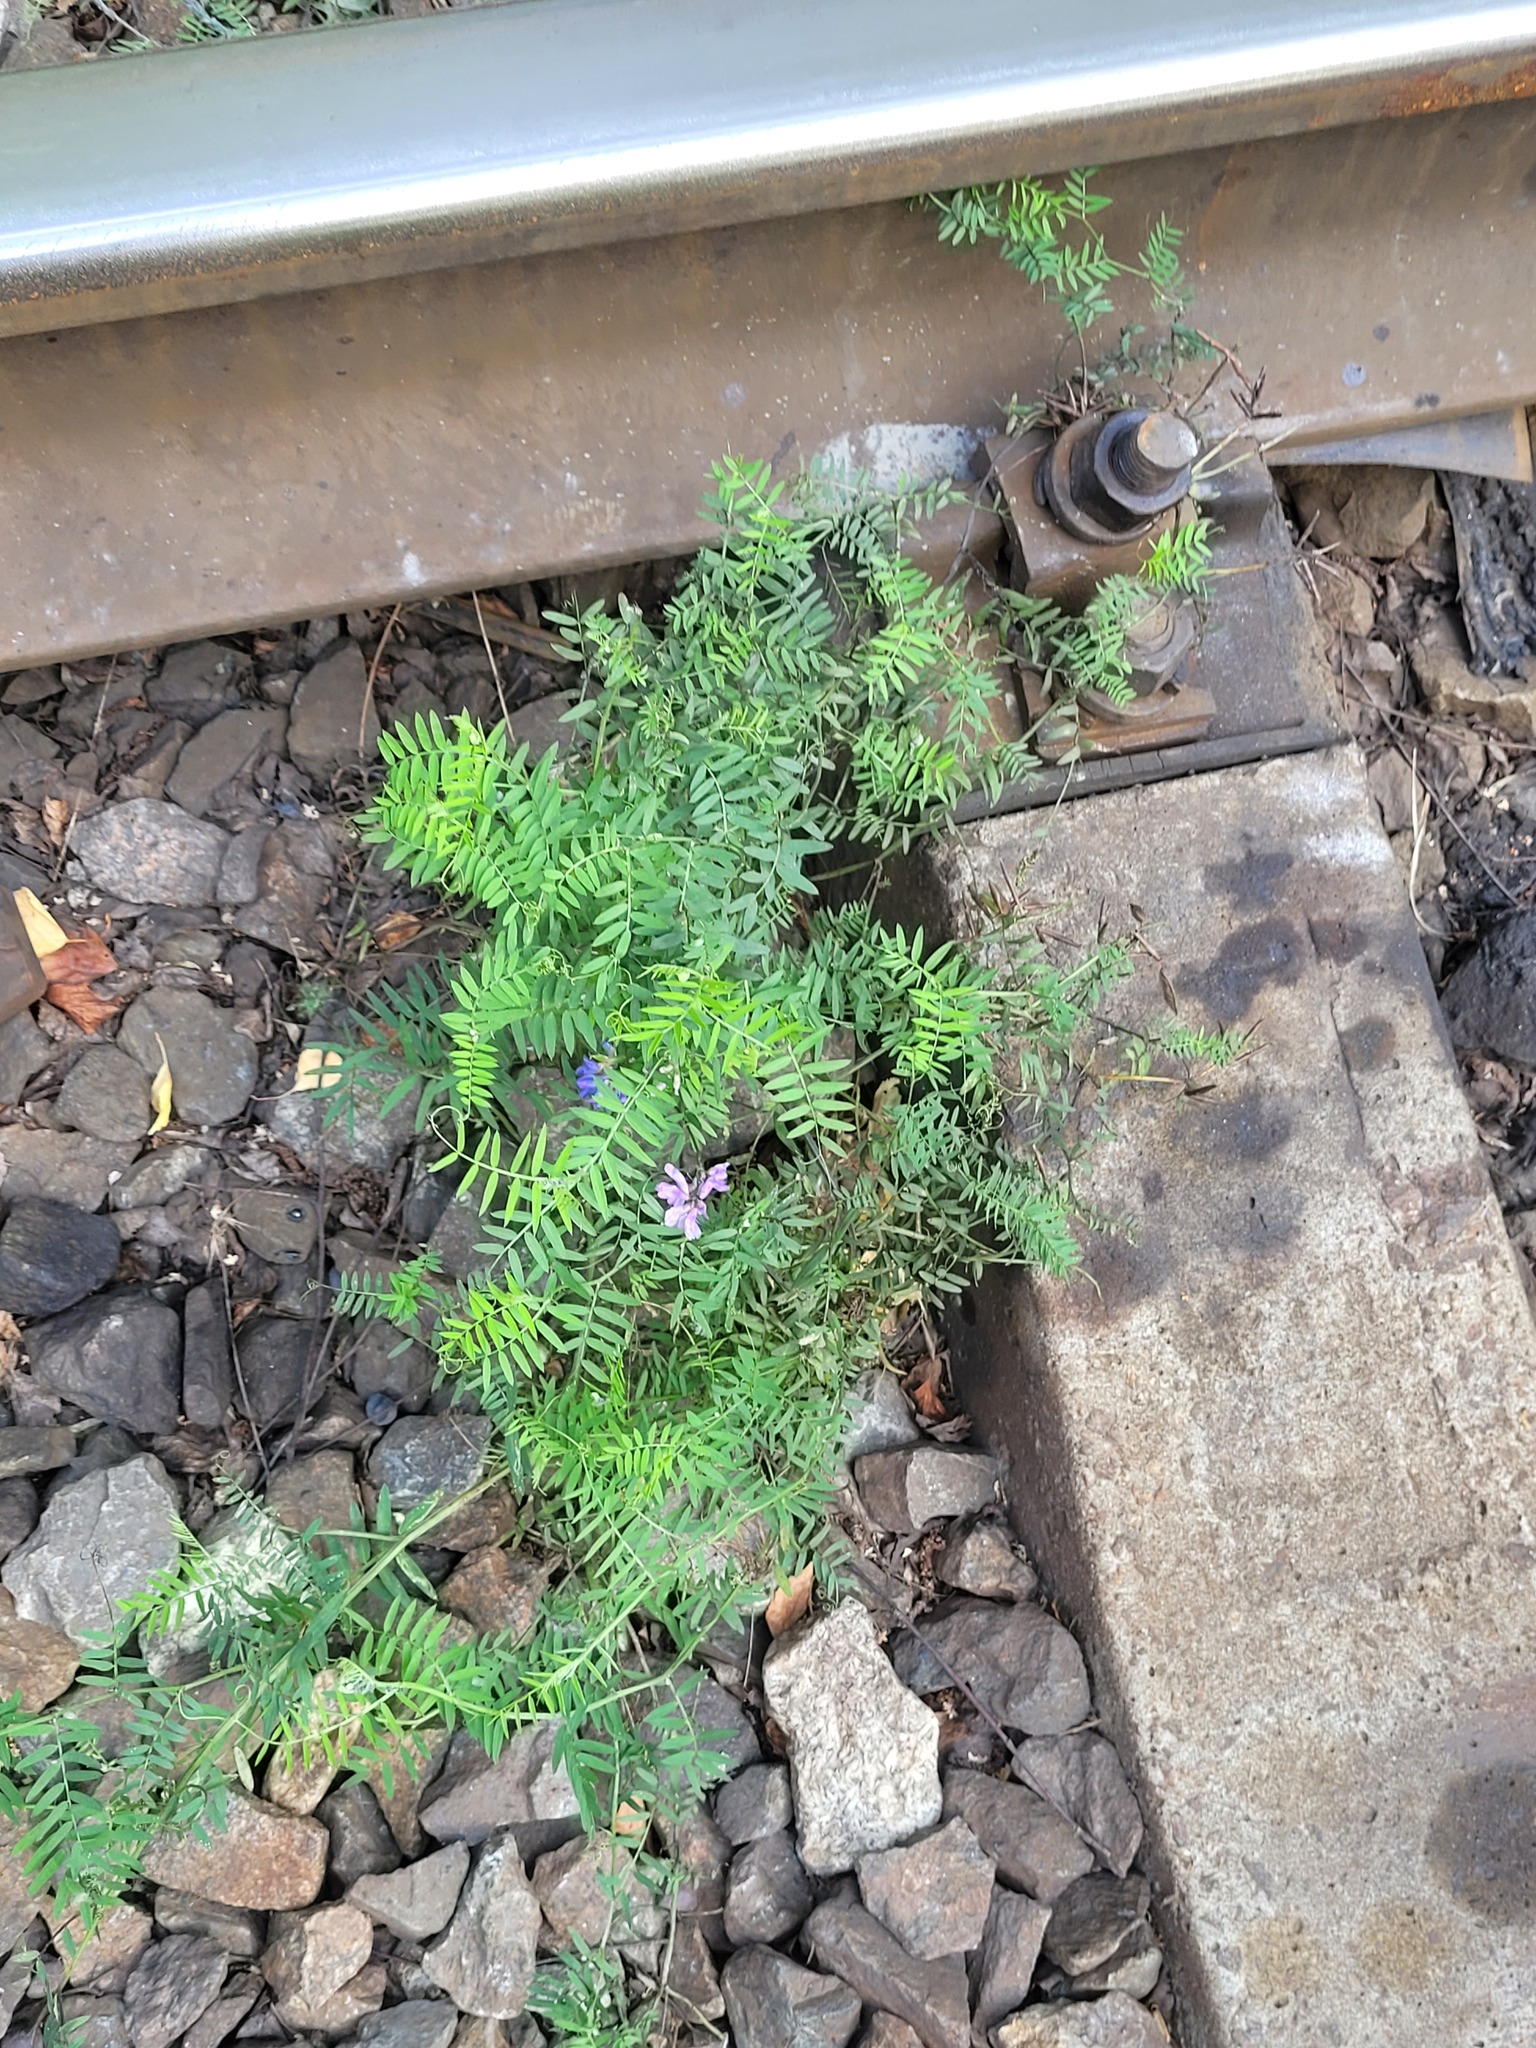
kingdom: Plantae
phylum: Tracheophyta
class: Magnoliopsida
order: Fabales
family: Fabaceae
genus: Vicia
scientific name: Vicia cracca
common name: Bird vetch
